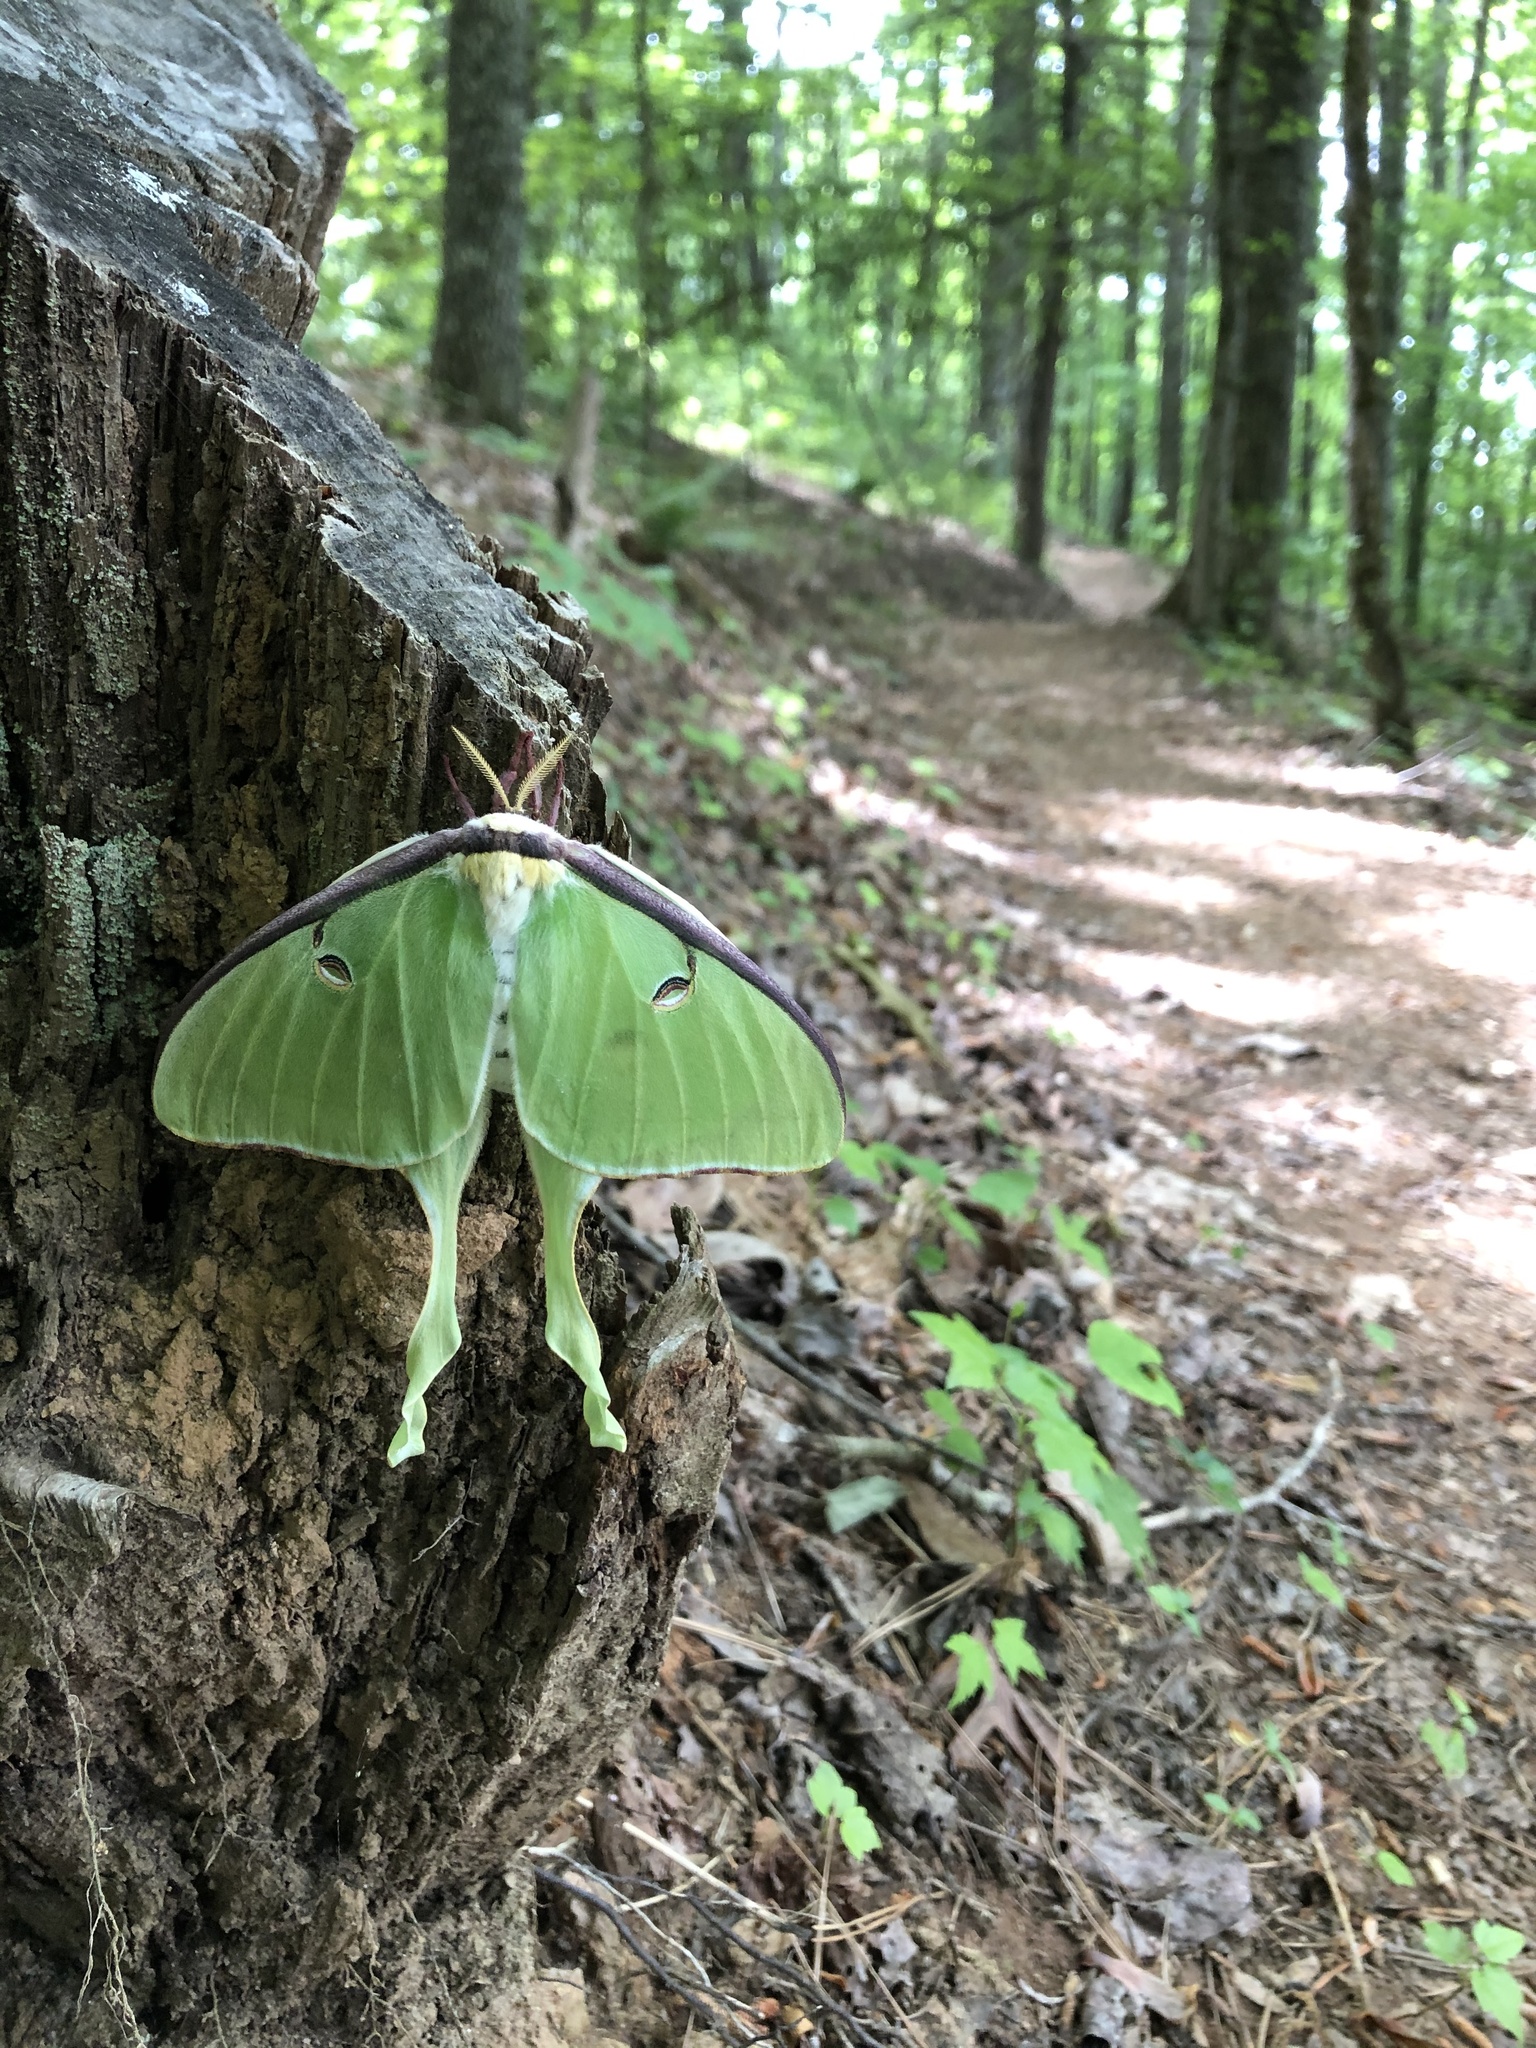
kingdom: Animalia
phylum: Arthropoda
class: Insecta
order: Lepidoptera
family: Saturniidae
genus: Actias
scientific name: Actias luna
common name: Luna moth
